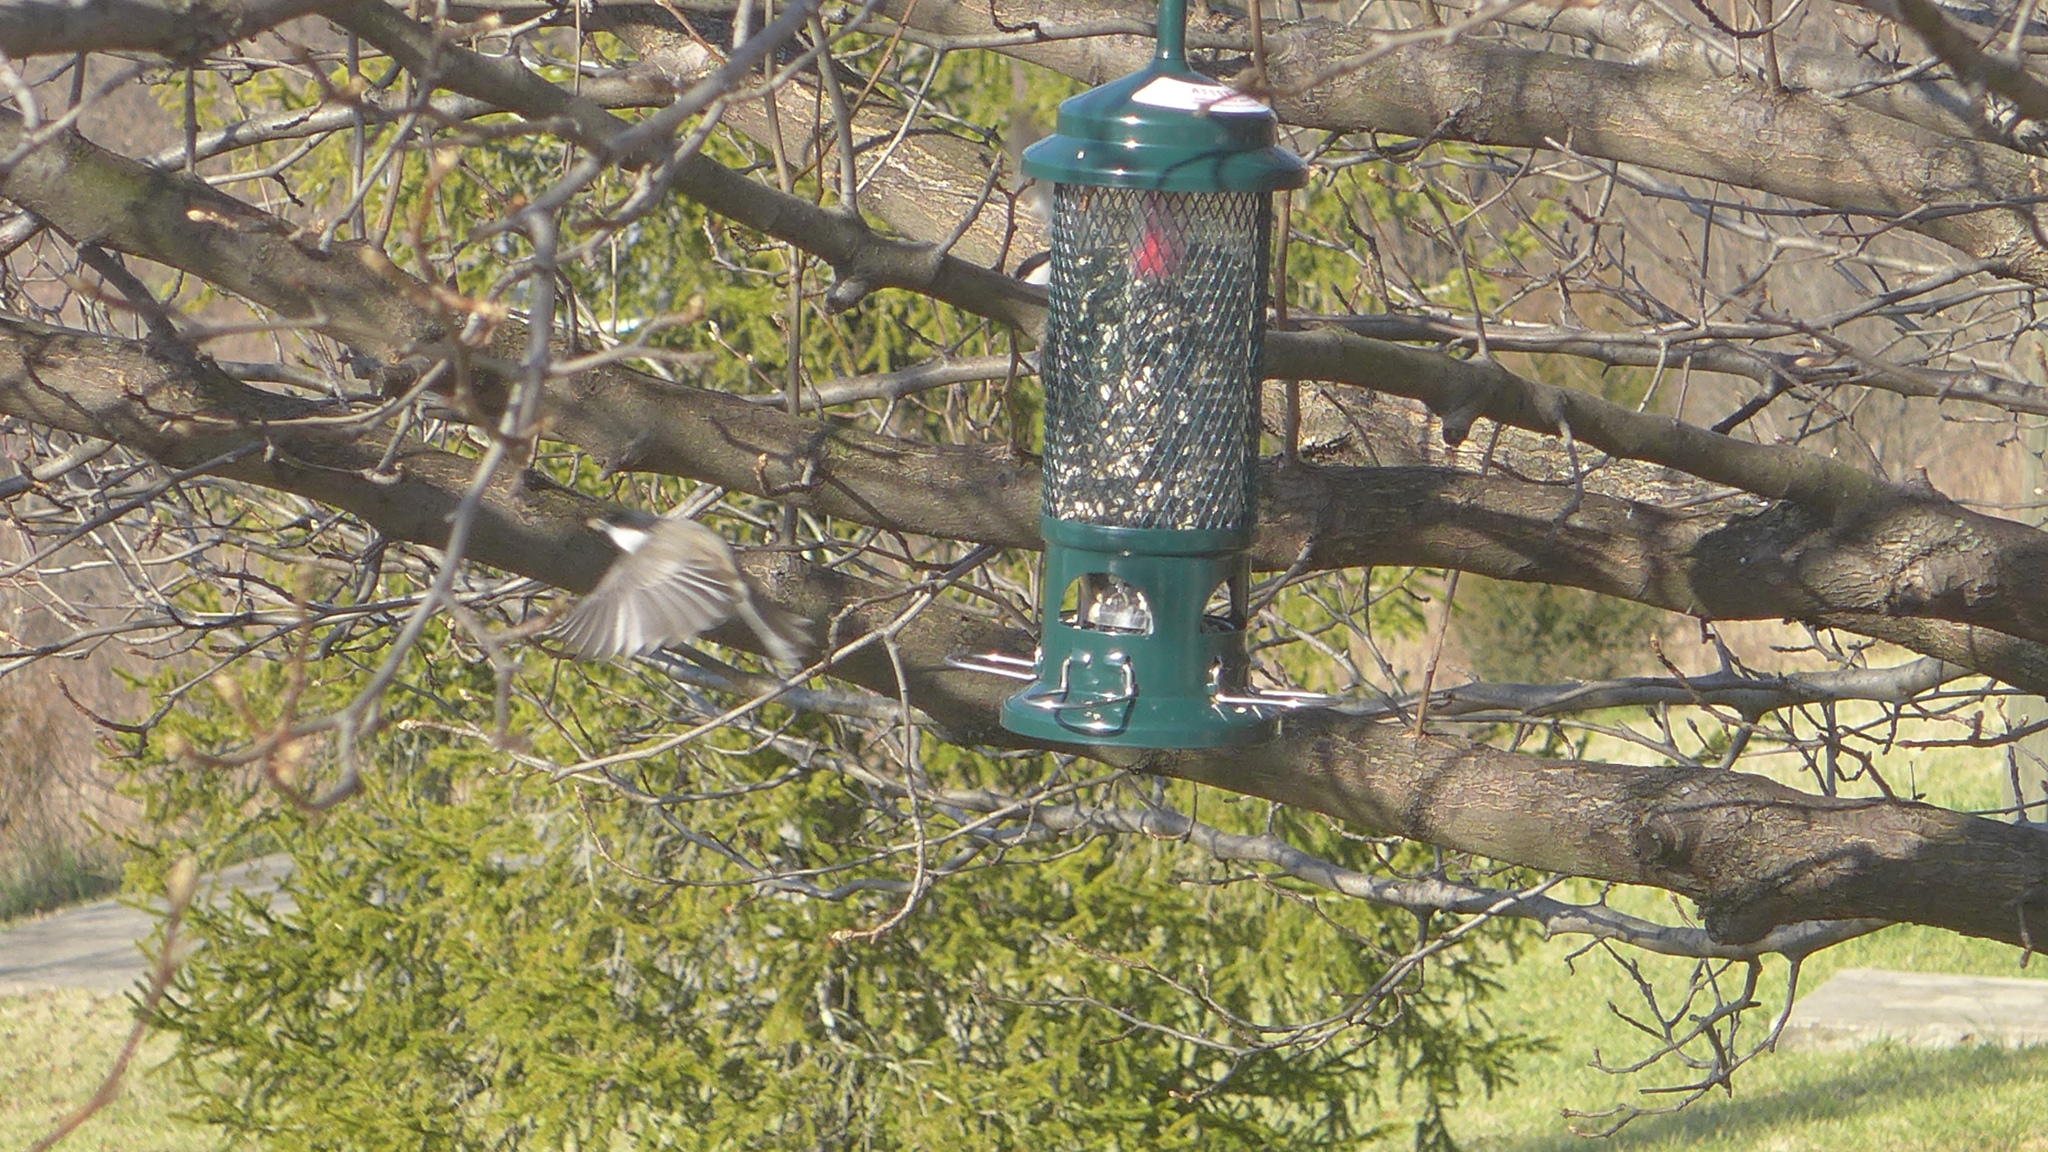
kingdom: Animalia
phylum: Chordata
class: Aves
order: Passeriformes
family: Paridae
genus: Poecile
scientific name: Poecile carolinensis
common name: Carolina chickadee
